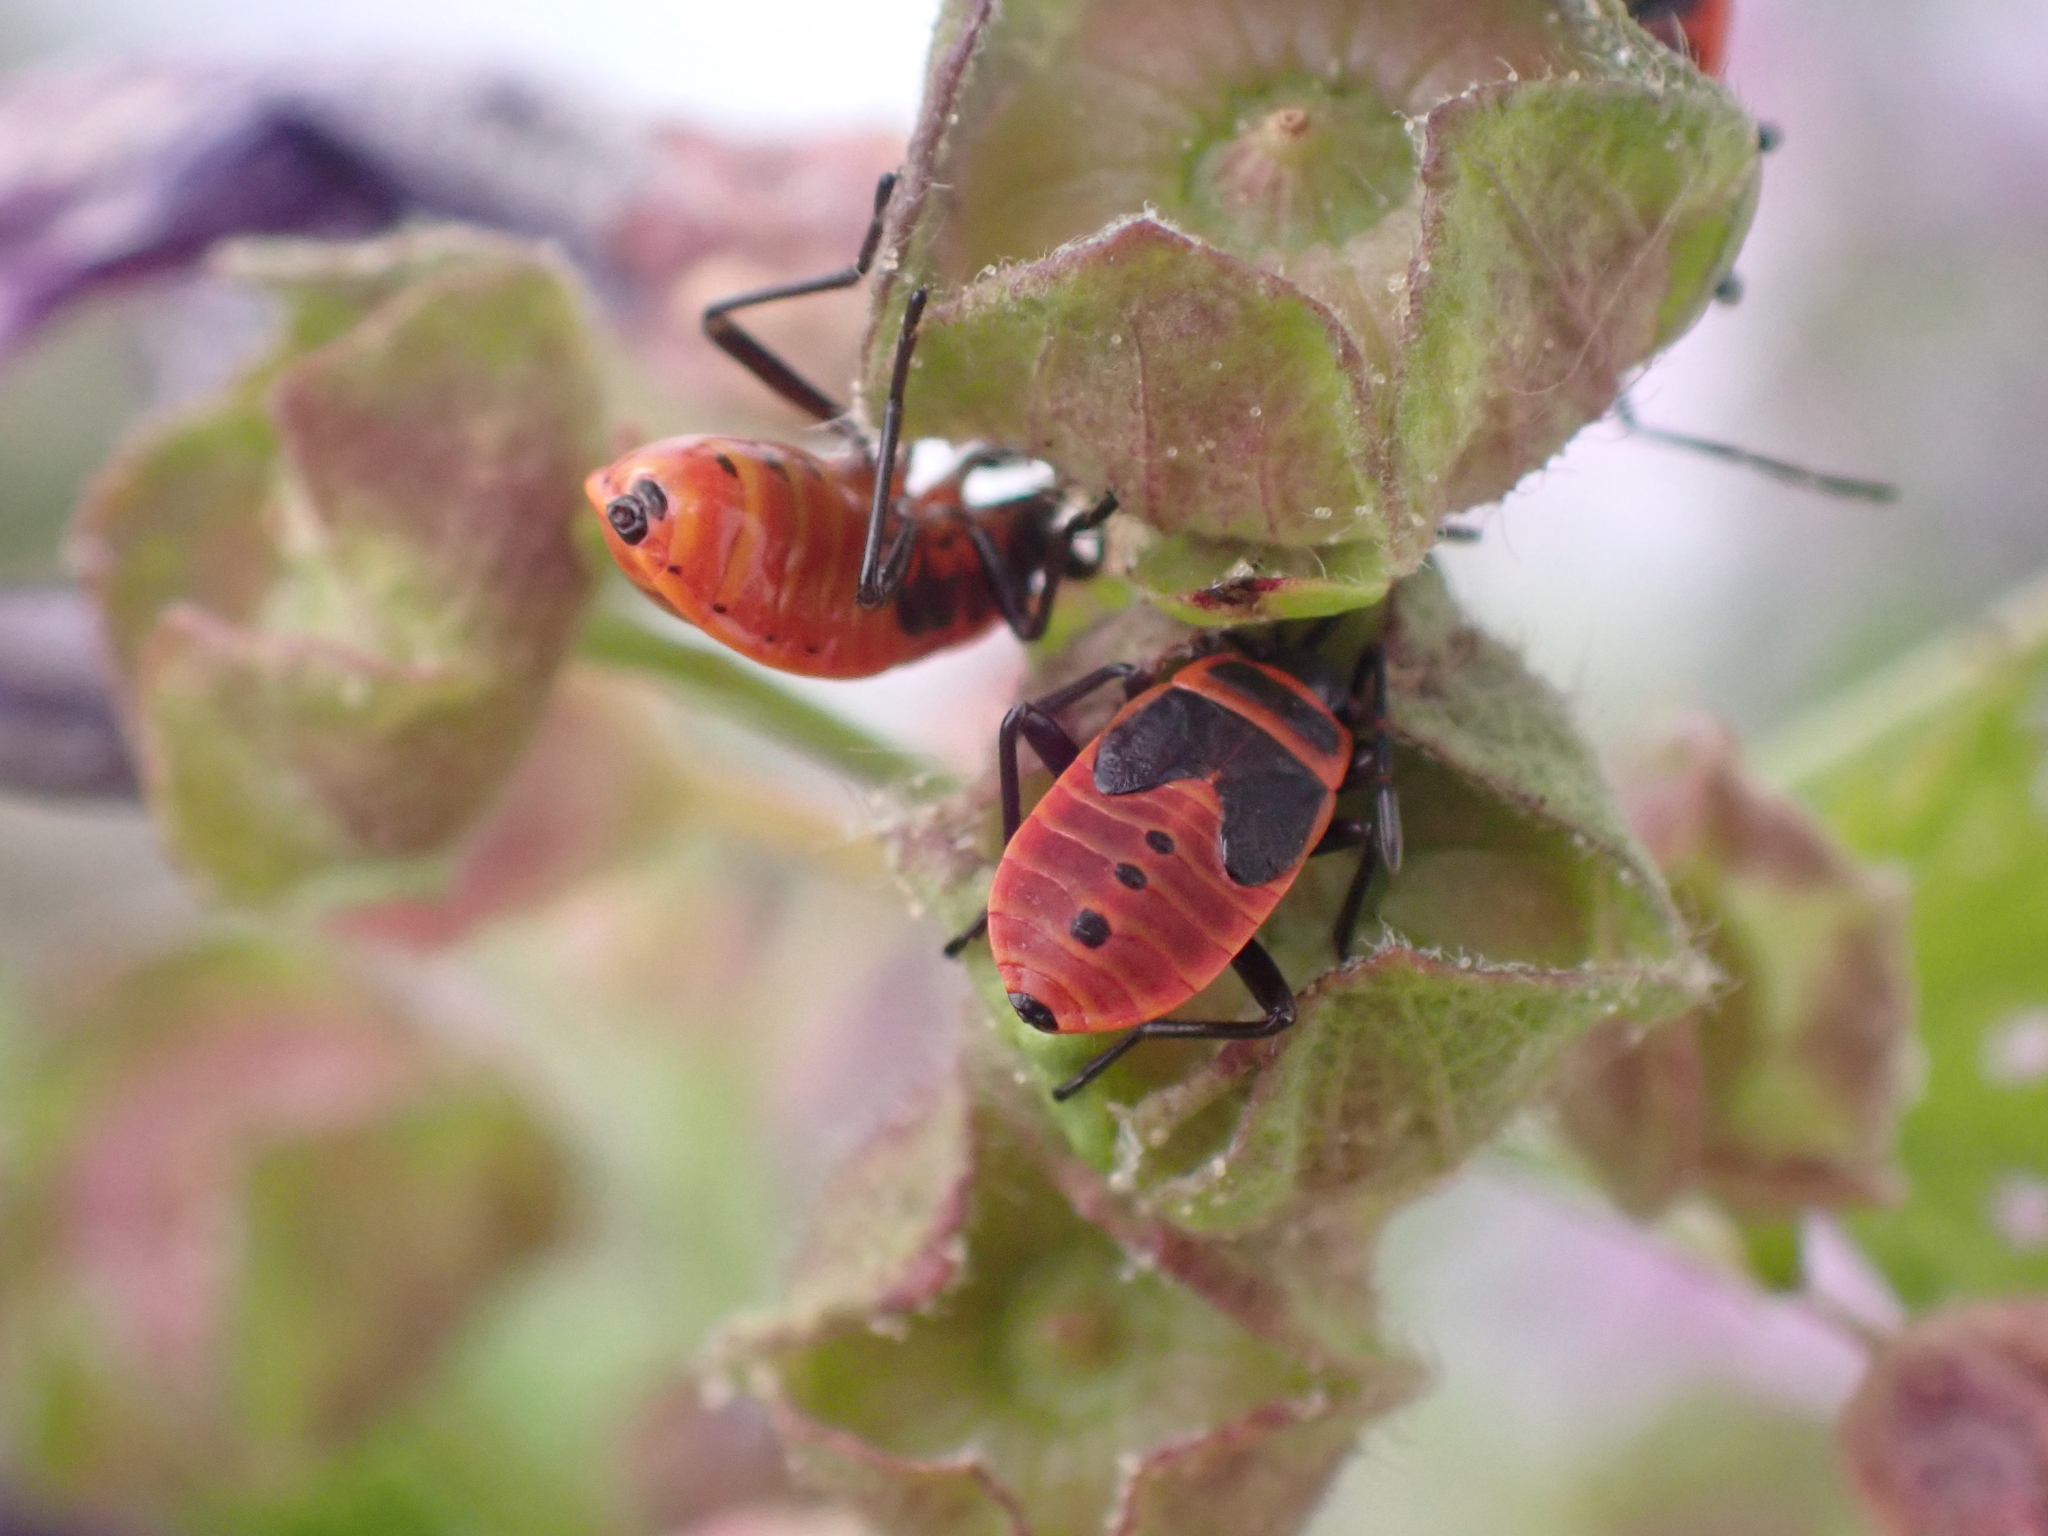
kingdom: Animalia
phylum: Arthropoda
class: Insecta
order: Hemiptera
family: Pyrrhocoridae
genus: Pyrrhocoris
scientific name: Pyrrhocoris apterus
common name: Firebug
